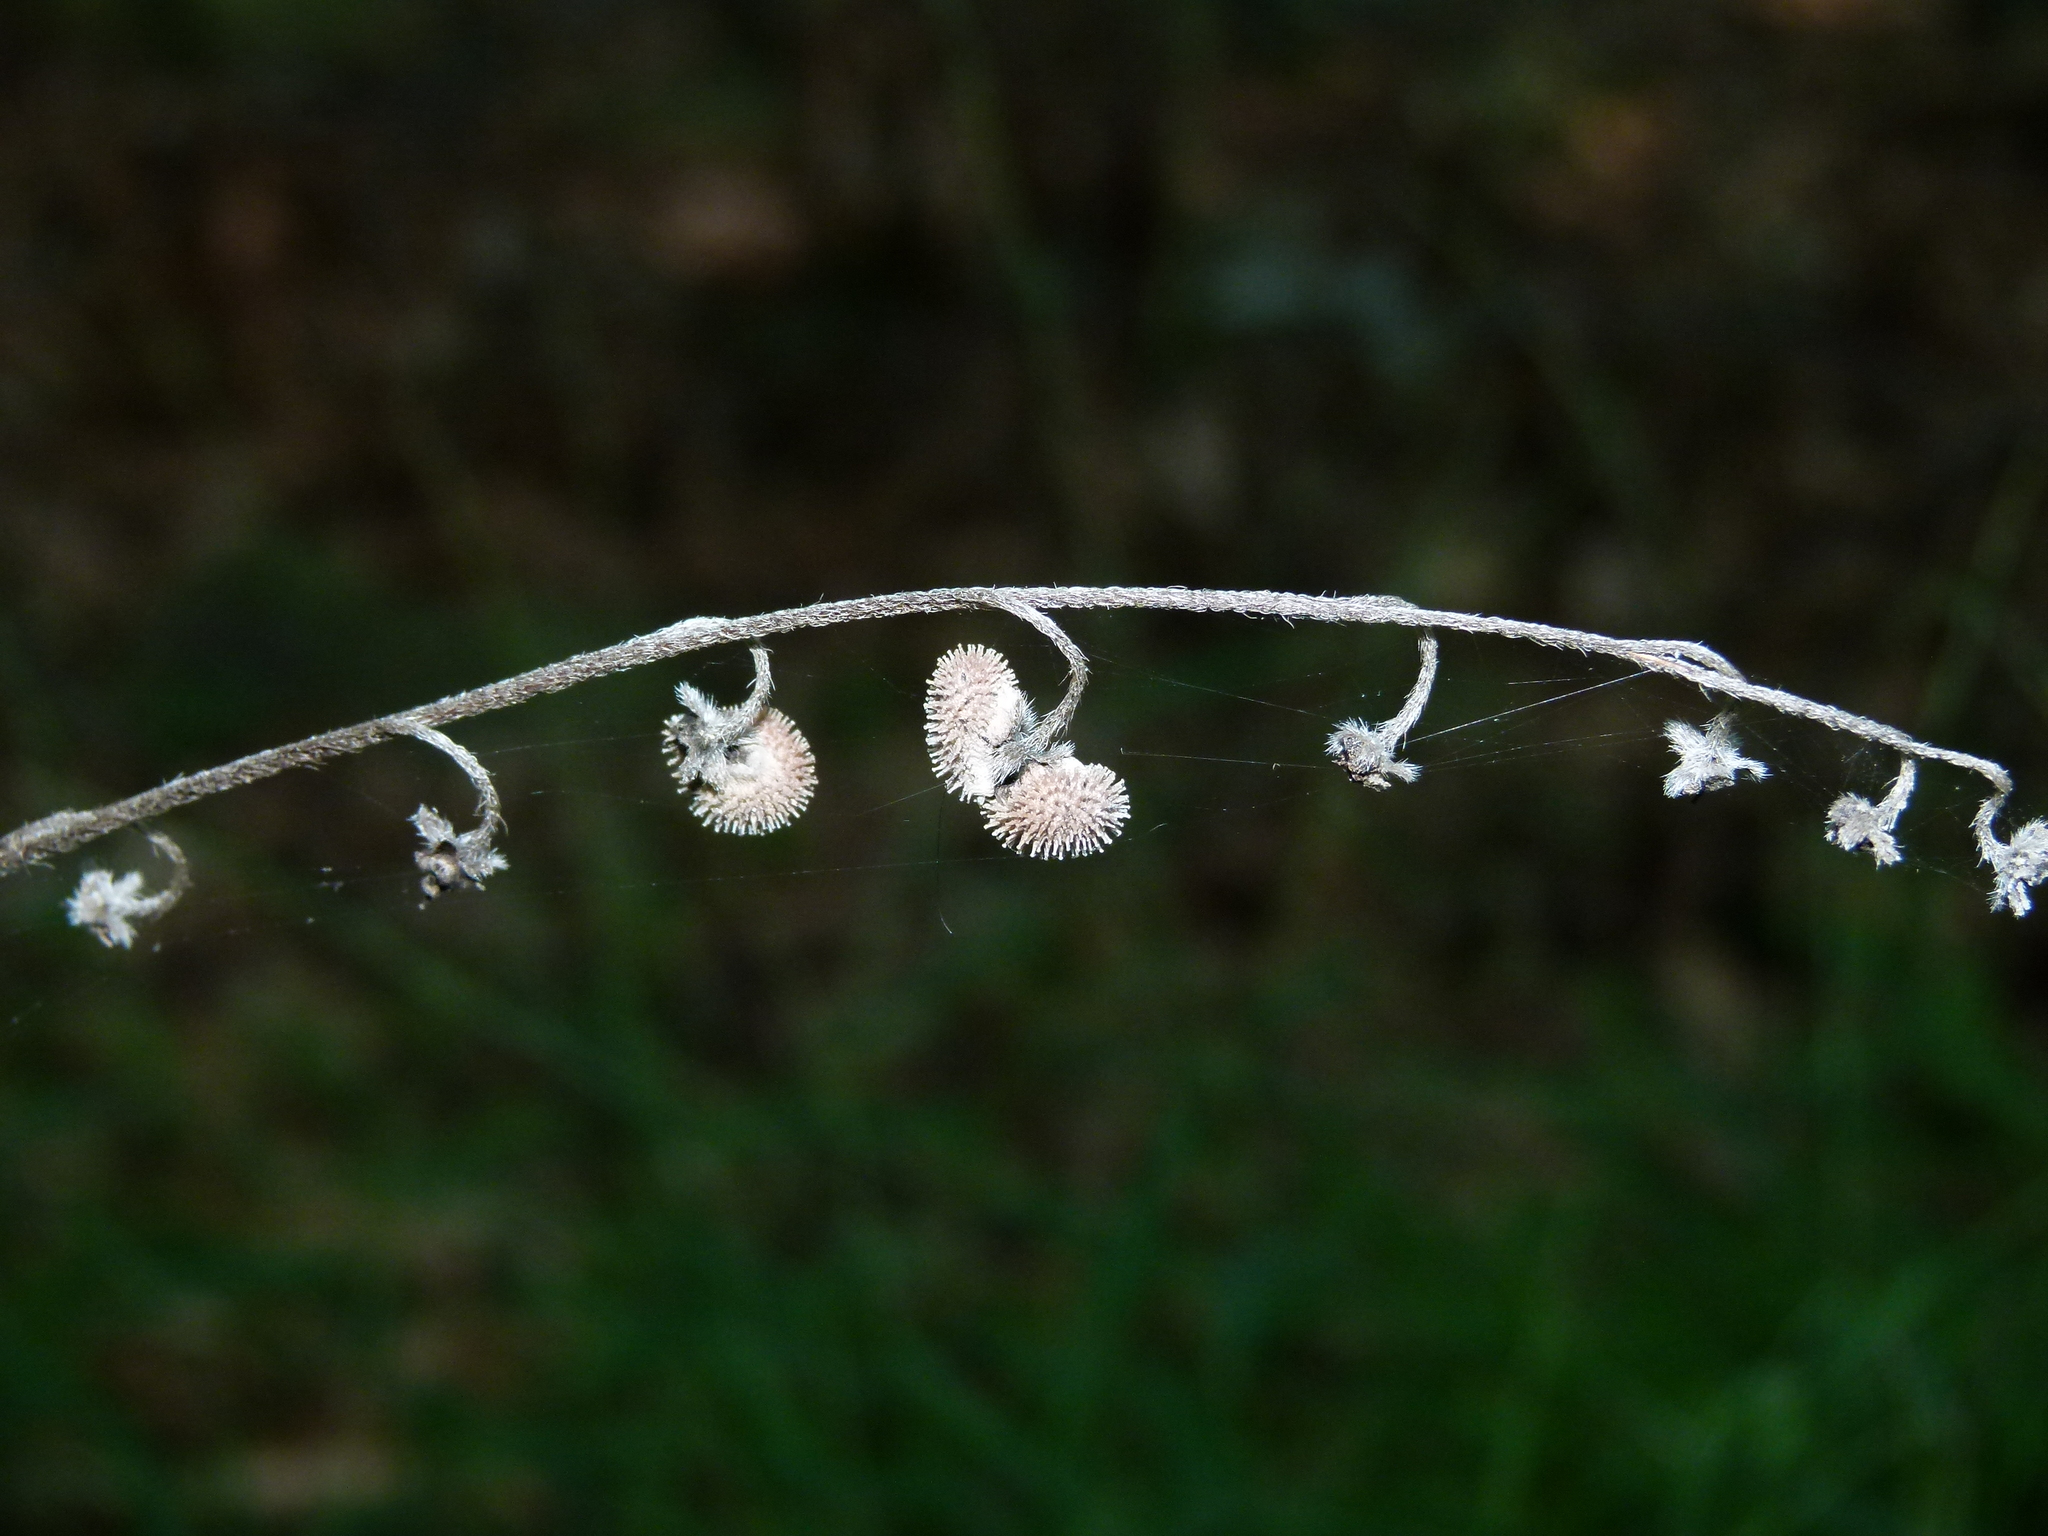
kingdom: Plantae
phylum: Tracheophyta
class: Magnoliopsida
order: Boraginales
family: Boraginaceae
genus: Andersonglossum
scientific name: Andersonglossum virginianum
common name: Wild comfrey
